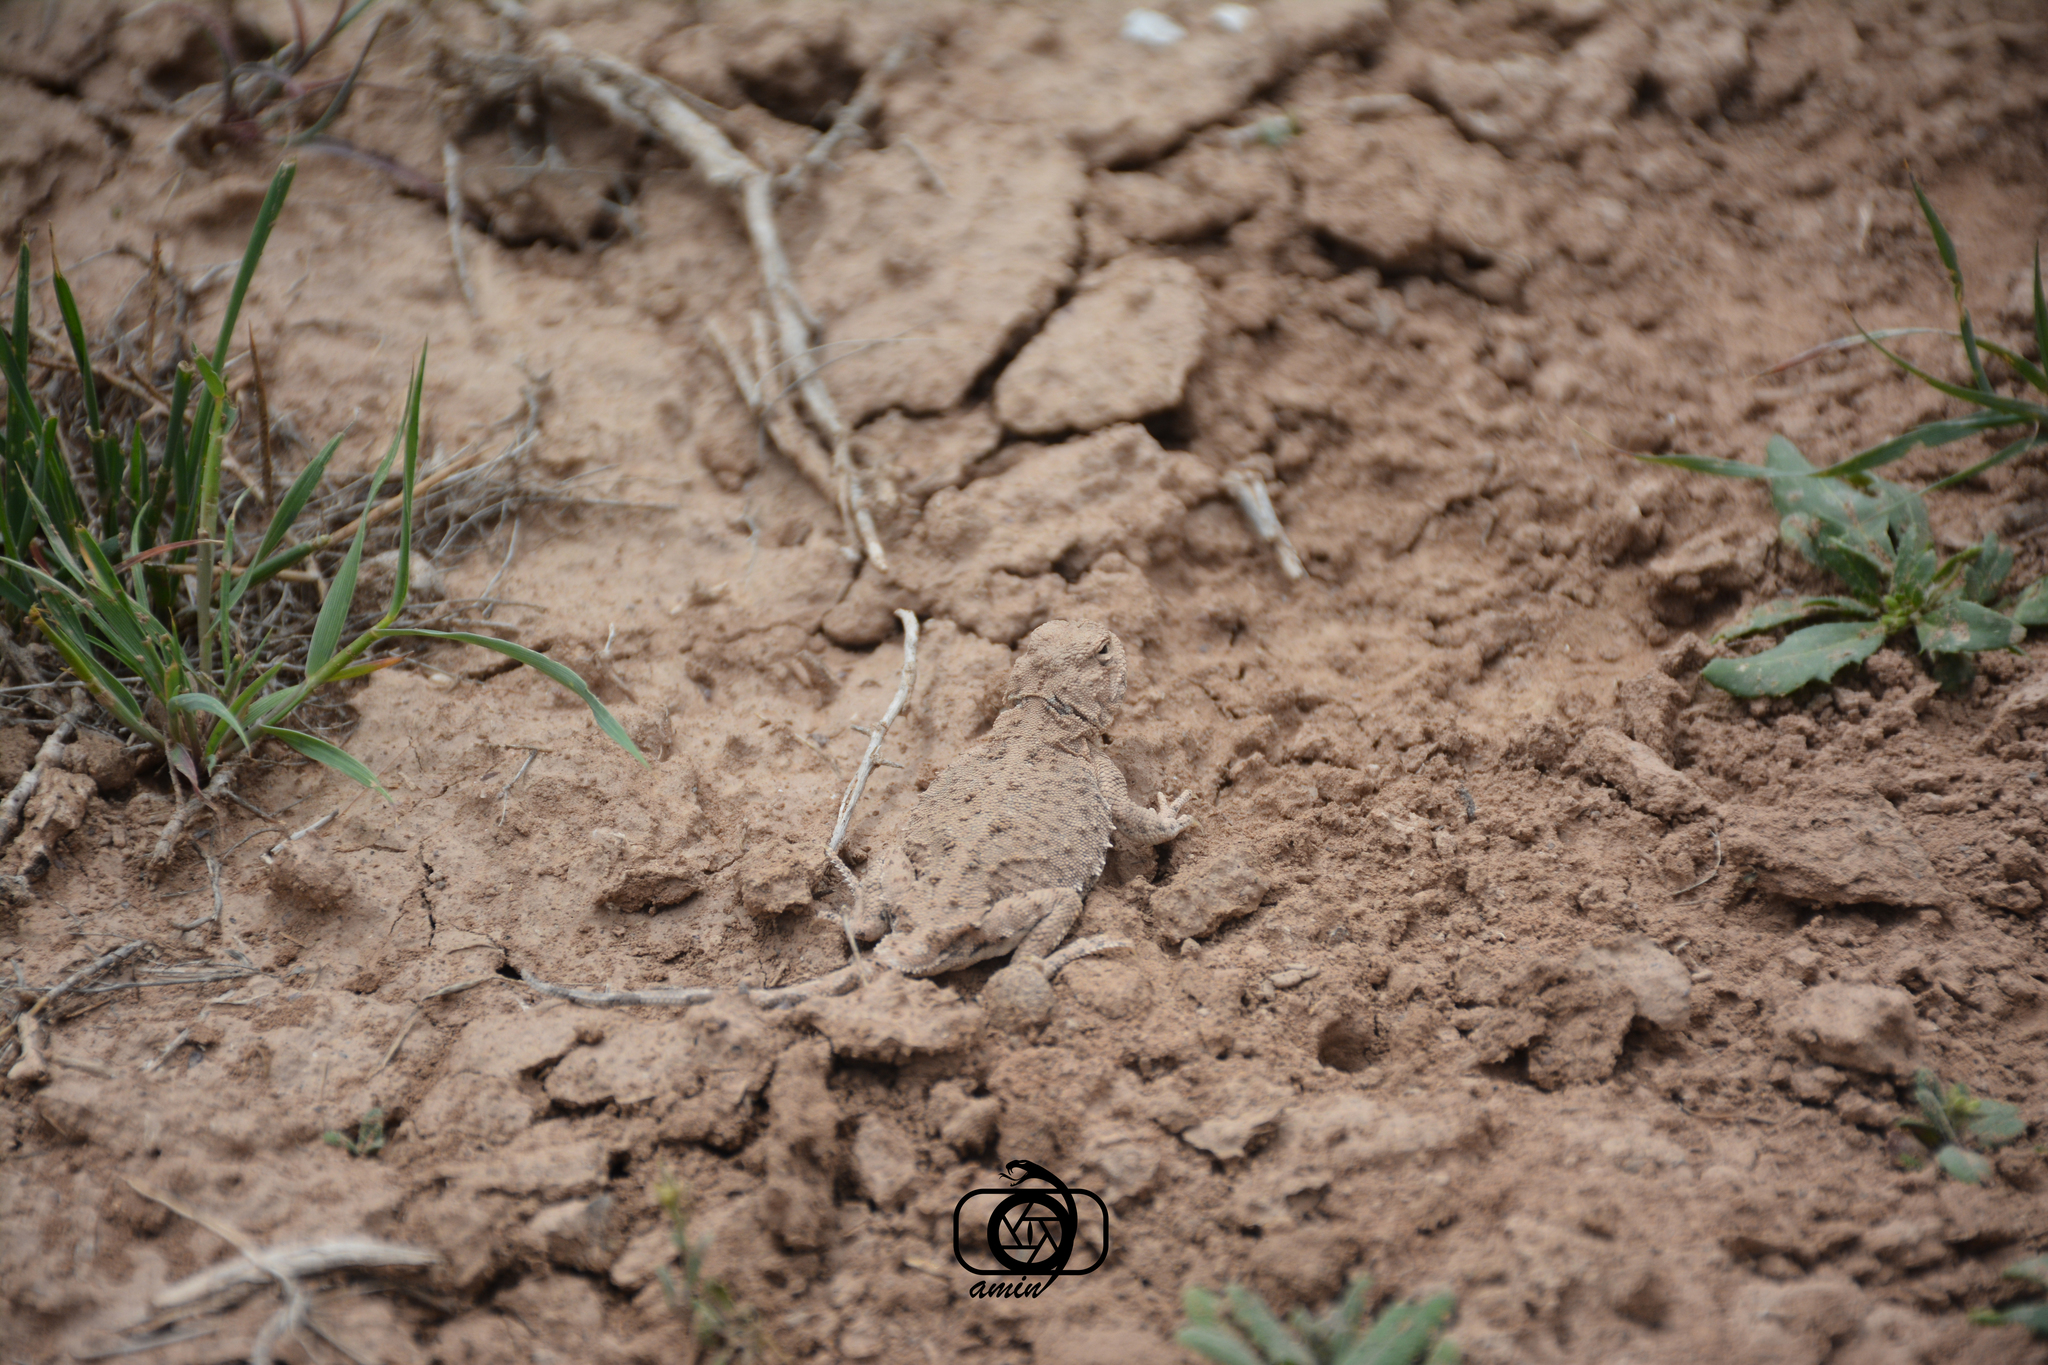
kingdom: Animalia
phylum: Chordata
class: Squamata
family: Agamidae
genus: Phrynocephalus
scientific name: Phrynocephalus persicus
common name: Persian toad agame
